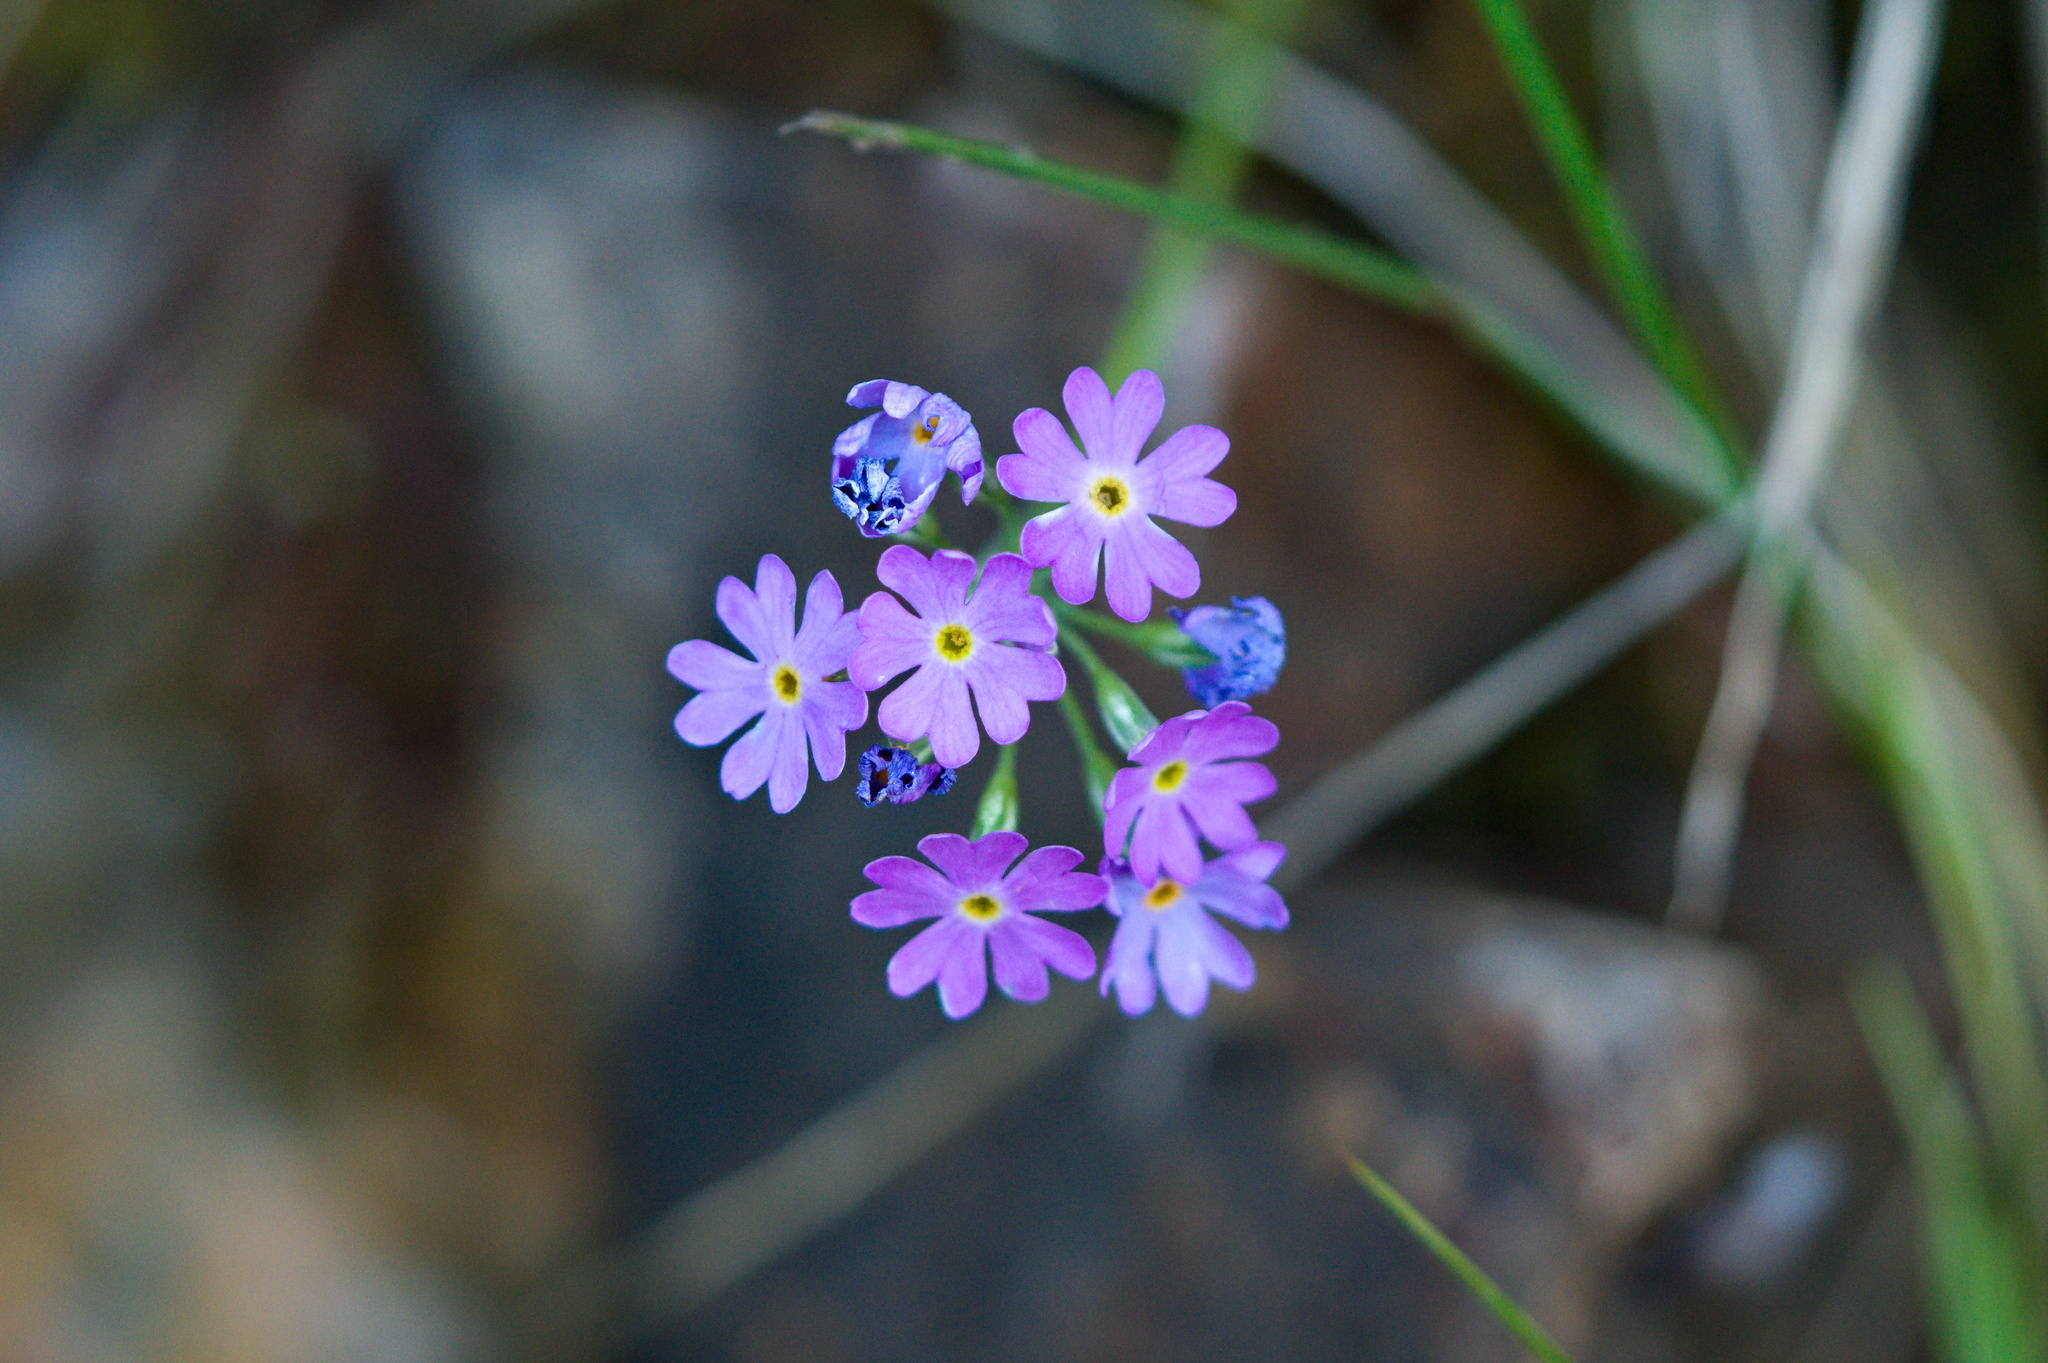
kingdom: Plantae
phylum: Tracheophyta
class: Magnoliopsida
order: Ericales
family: Primulaceae
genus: Primula
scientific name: Primula farinosa
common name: Bird's-eye primrose
